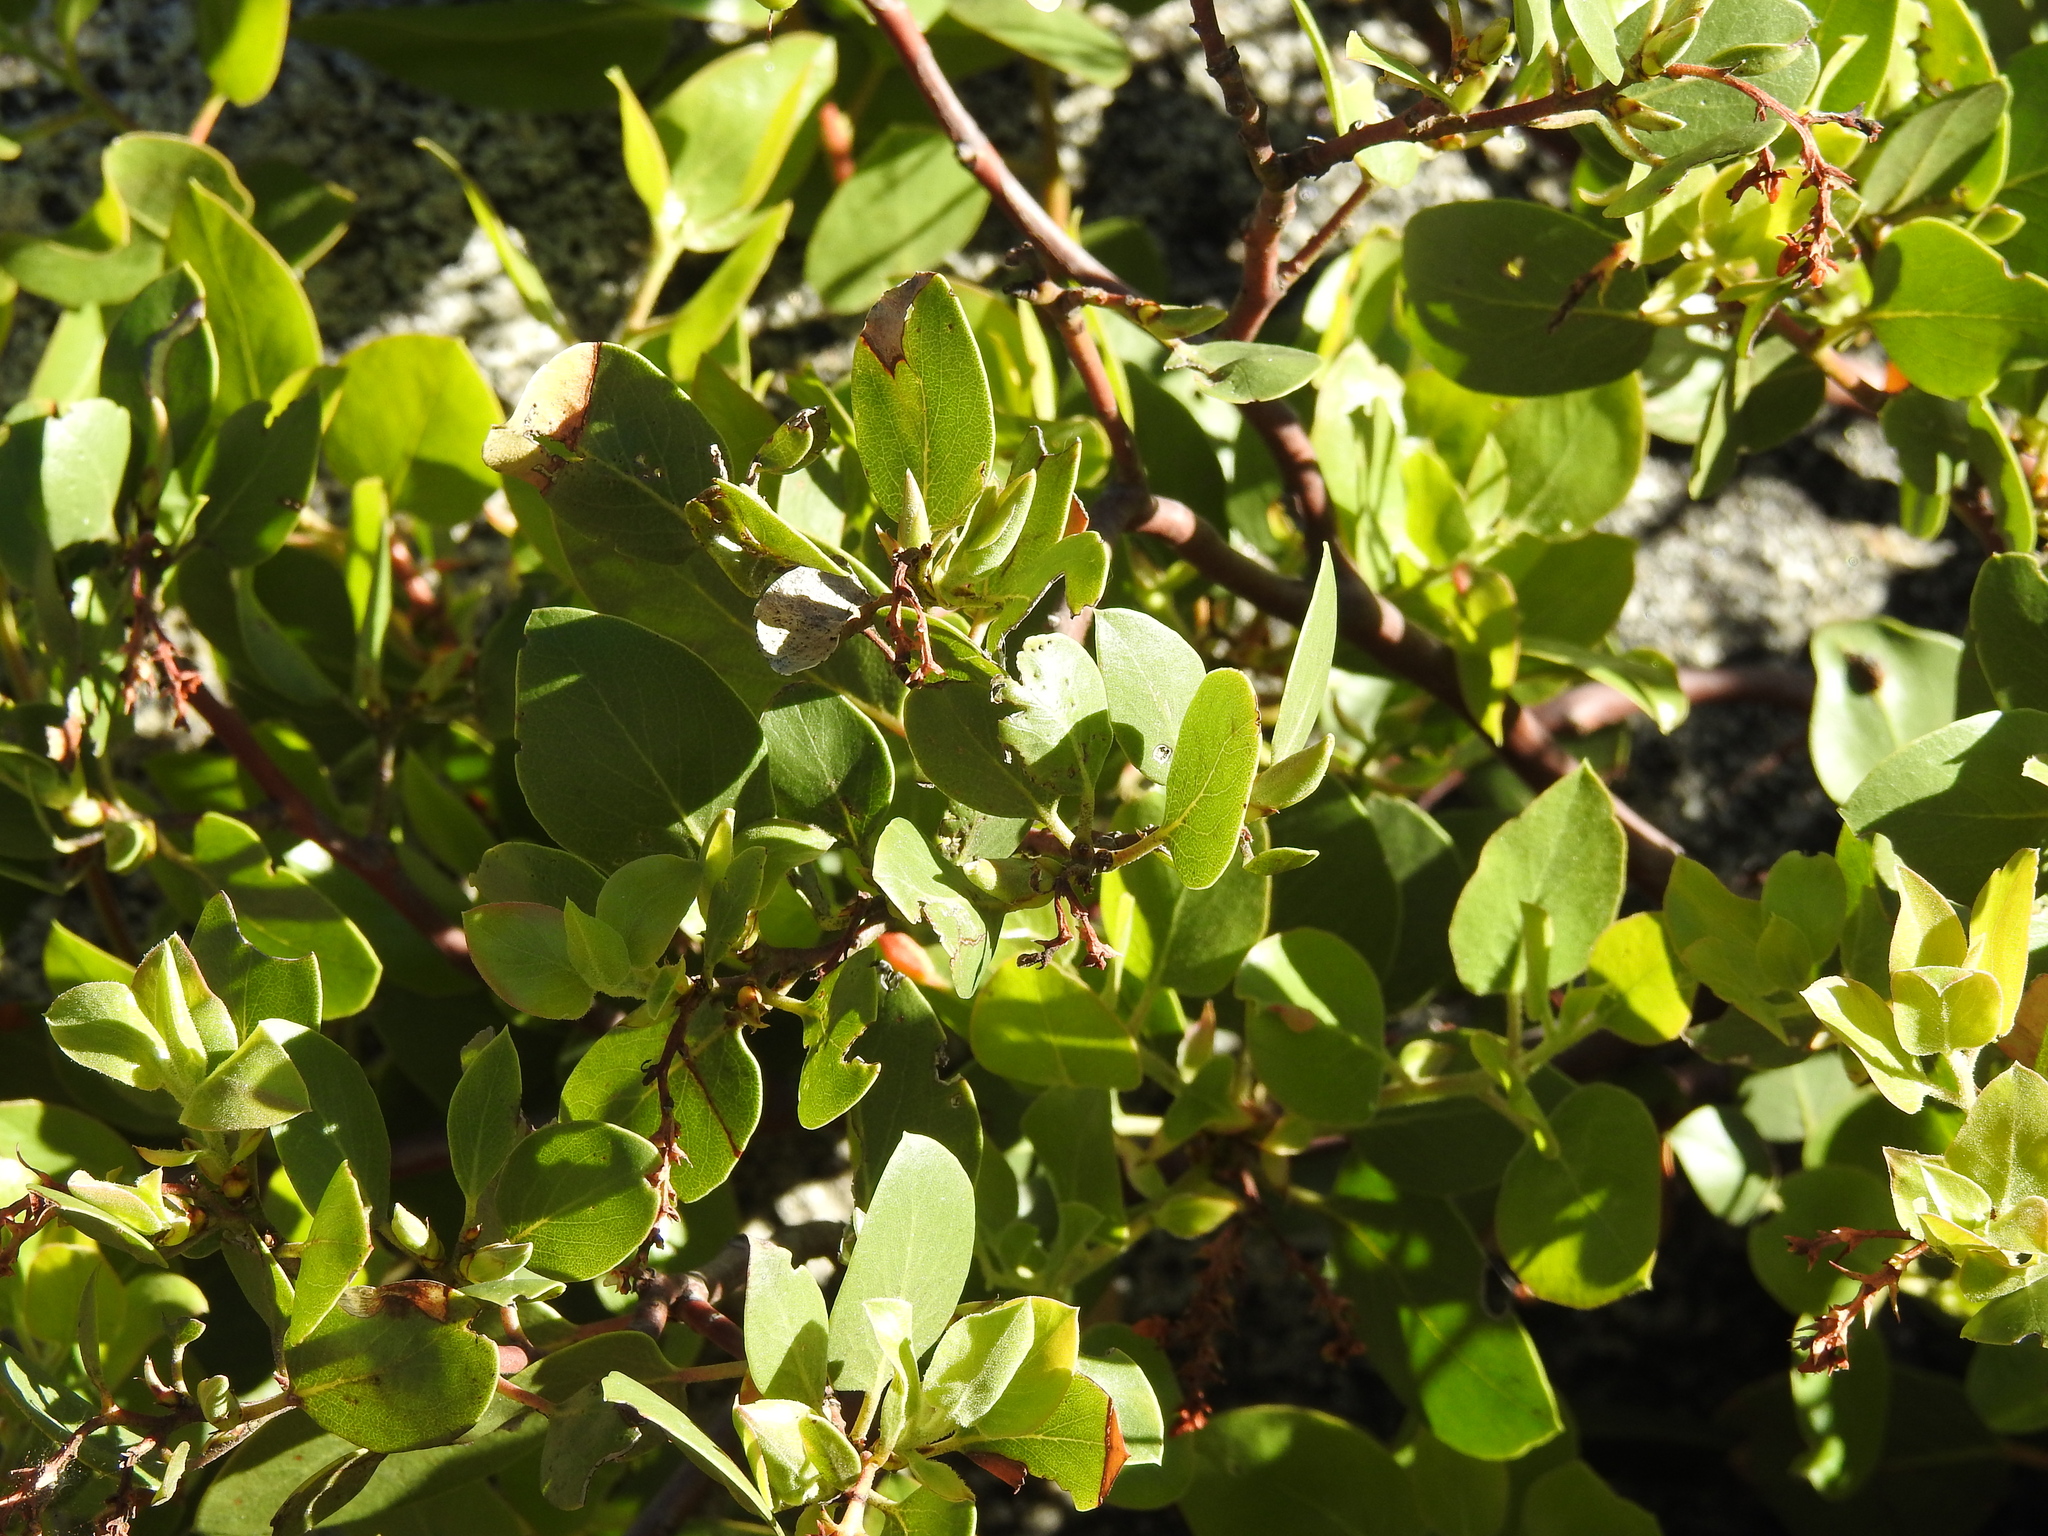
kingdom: Plantae
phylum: Tracheophyta
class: Magnoliopsida
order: Ericales
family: Ericaceae
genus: Arctostaphylos
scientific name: Arctostaphylos patula
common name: Green-leaf manzanita
